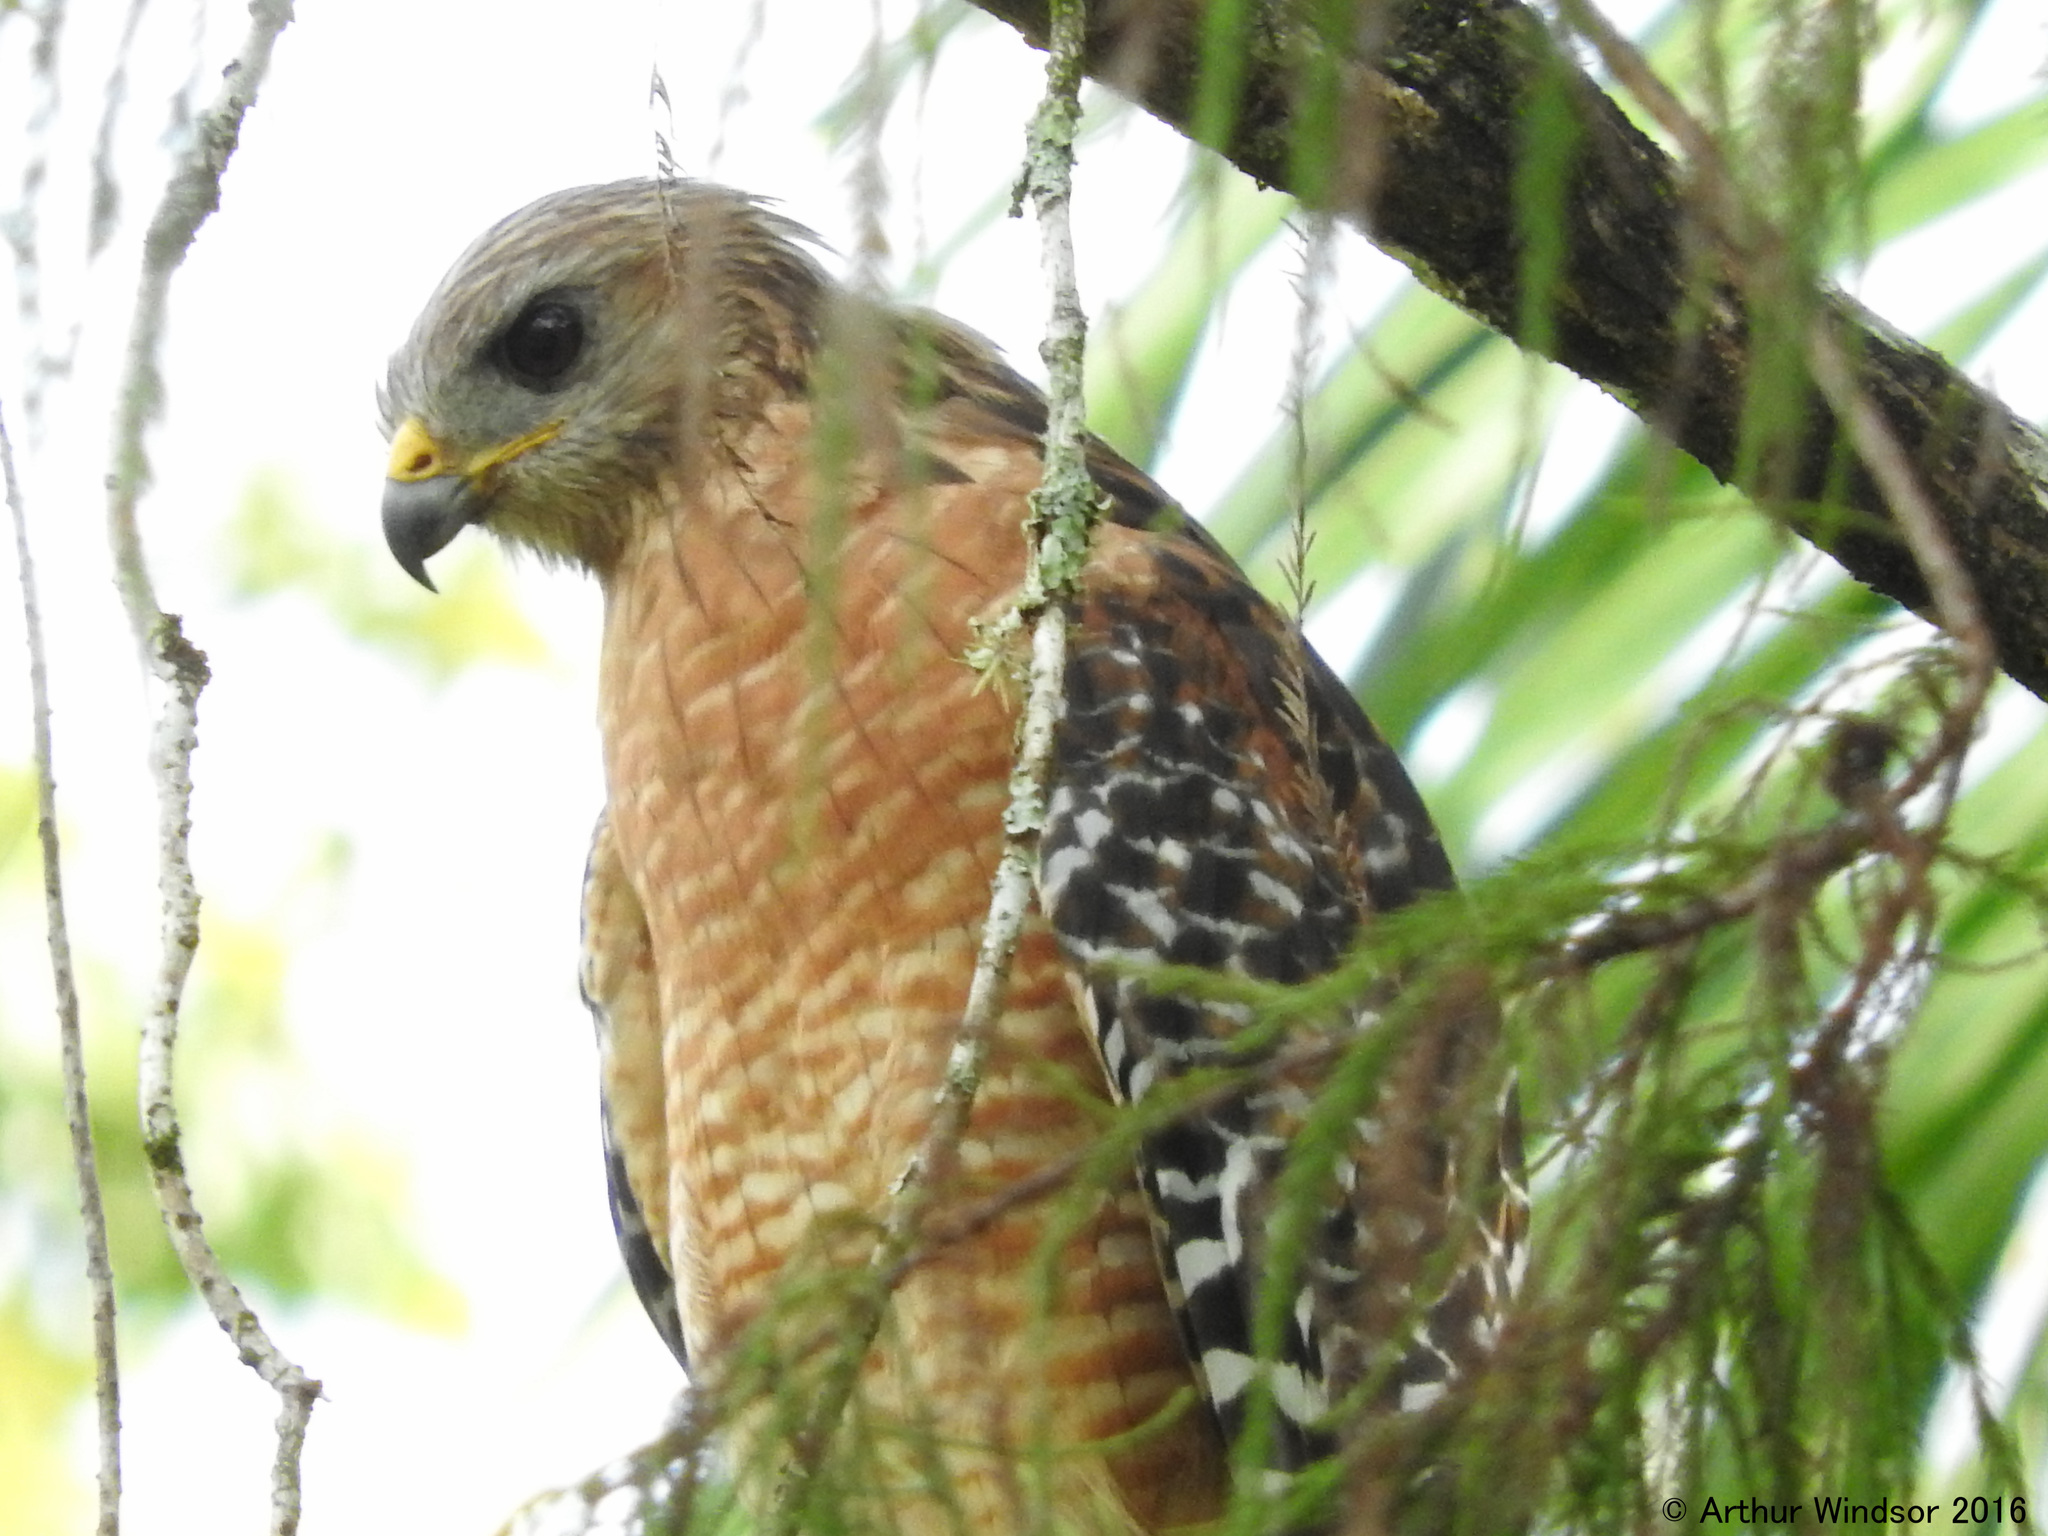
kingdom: Animalia
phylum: Chordata
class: Aves
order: Accipitriformes
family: Accipitridae
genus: Buteo
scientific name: Buteo lineatus
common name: Red-shouldered hawk
